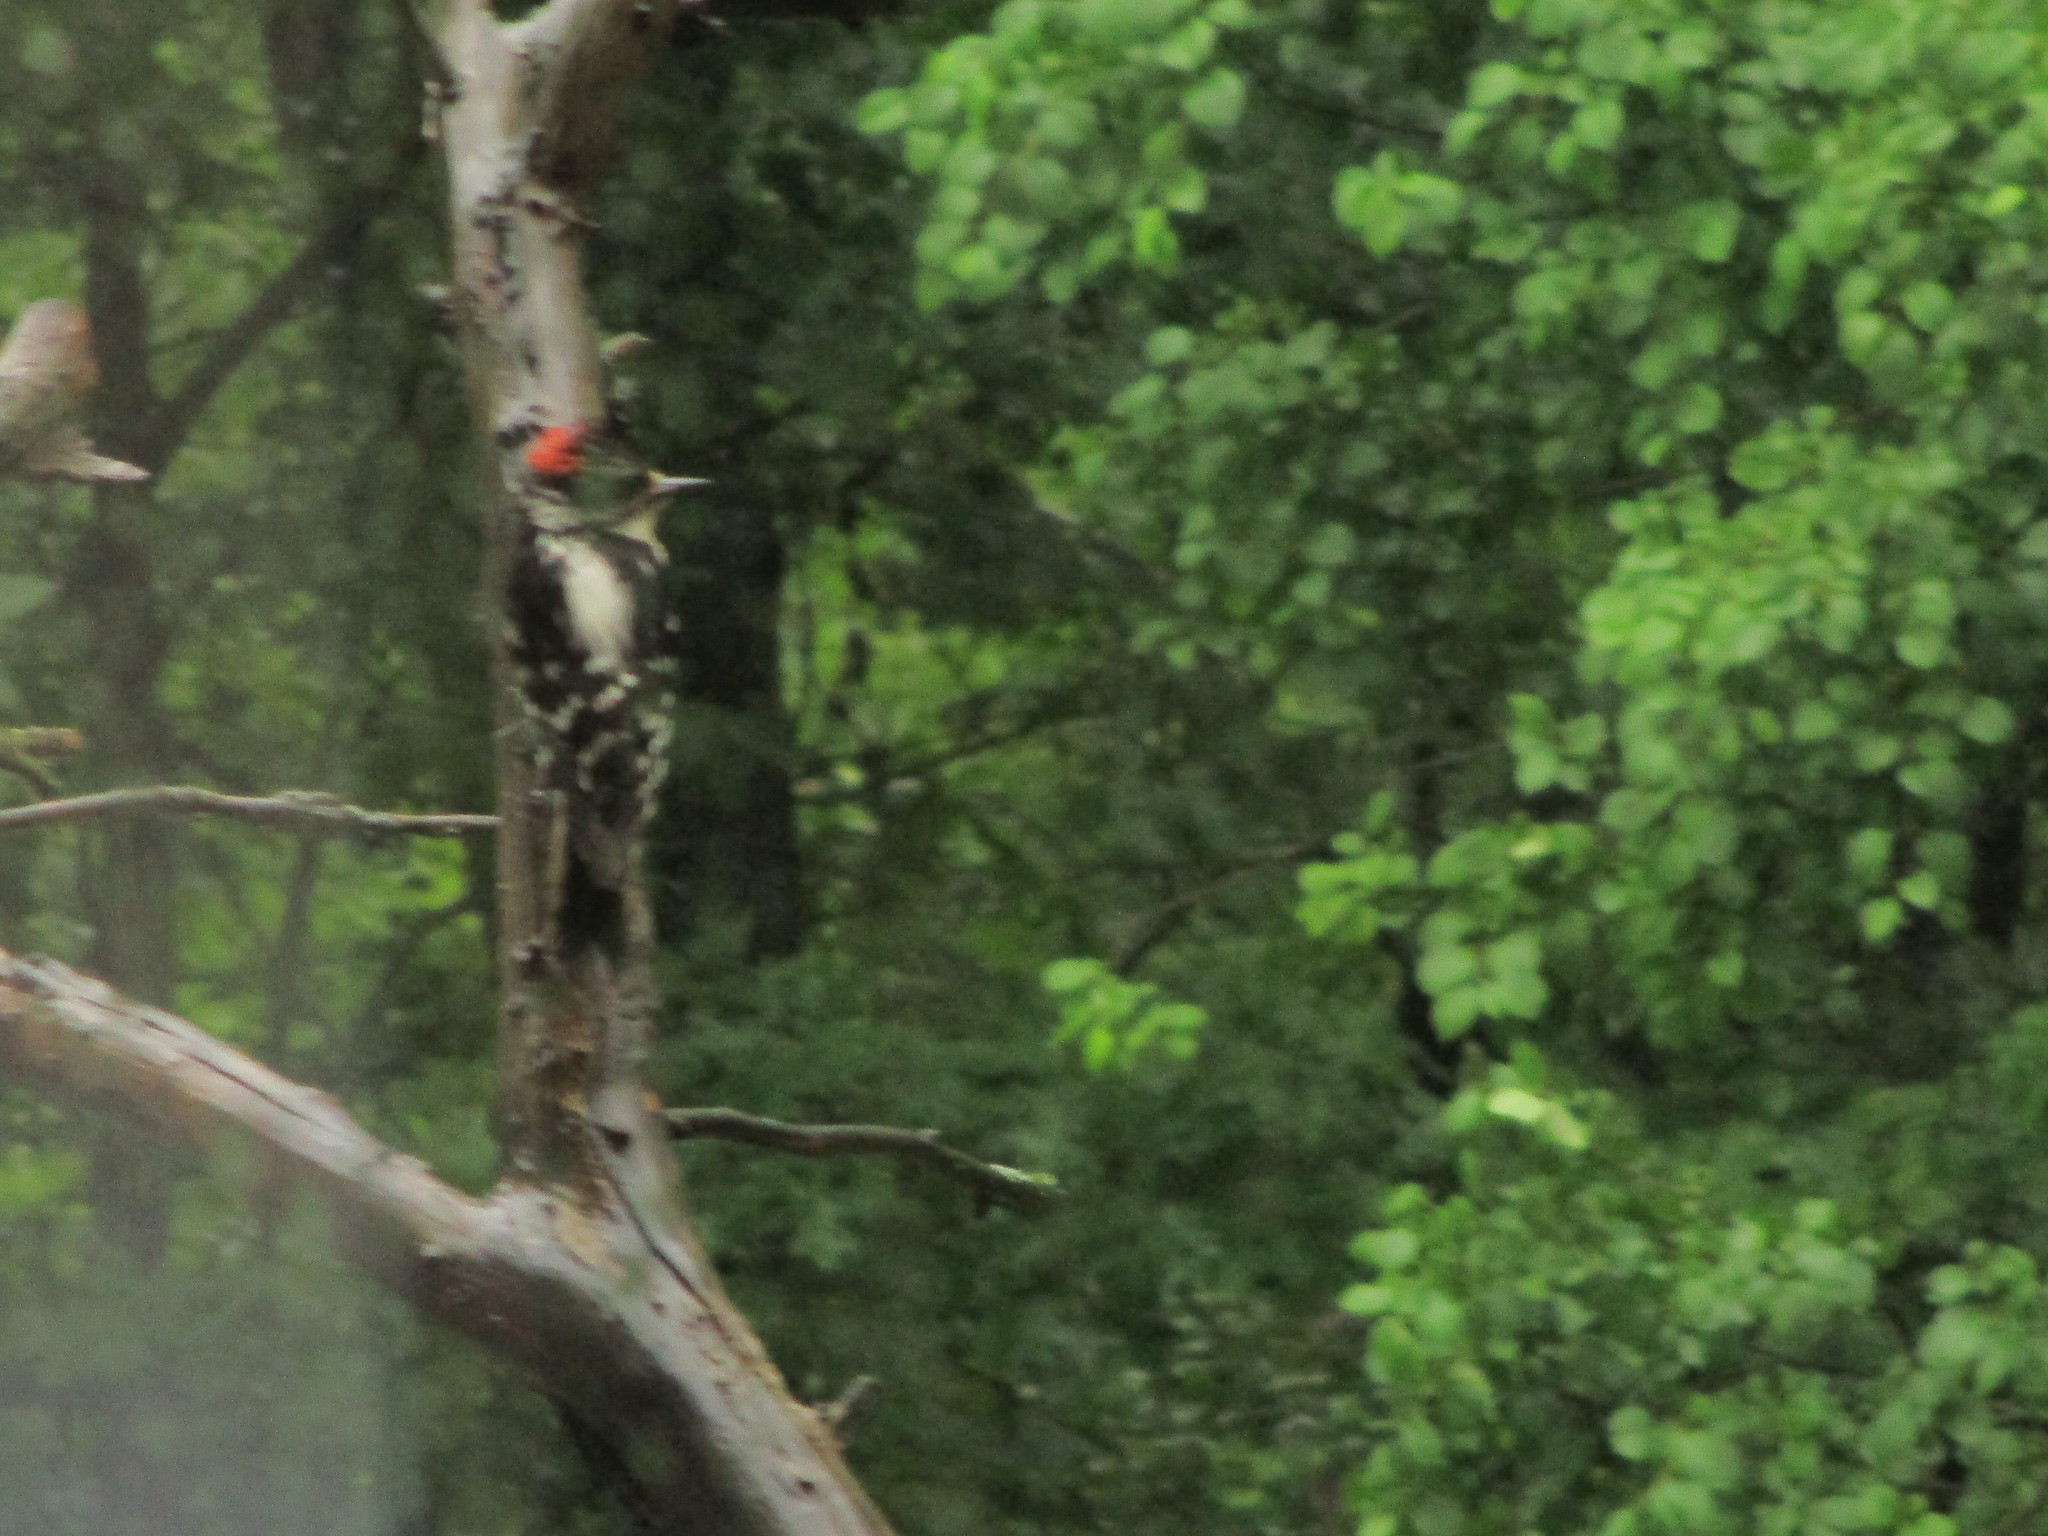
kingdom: Animalia
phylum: Chordata
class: Aves
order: Piciformes
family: Picidae
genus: Dryobates
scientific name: Dryobates pubescens
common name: Downy woodpecker
